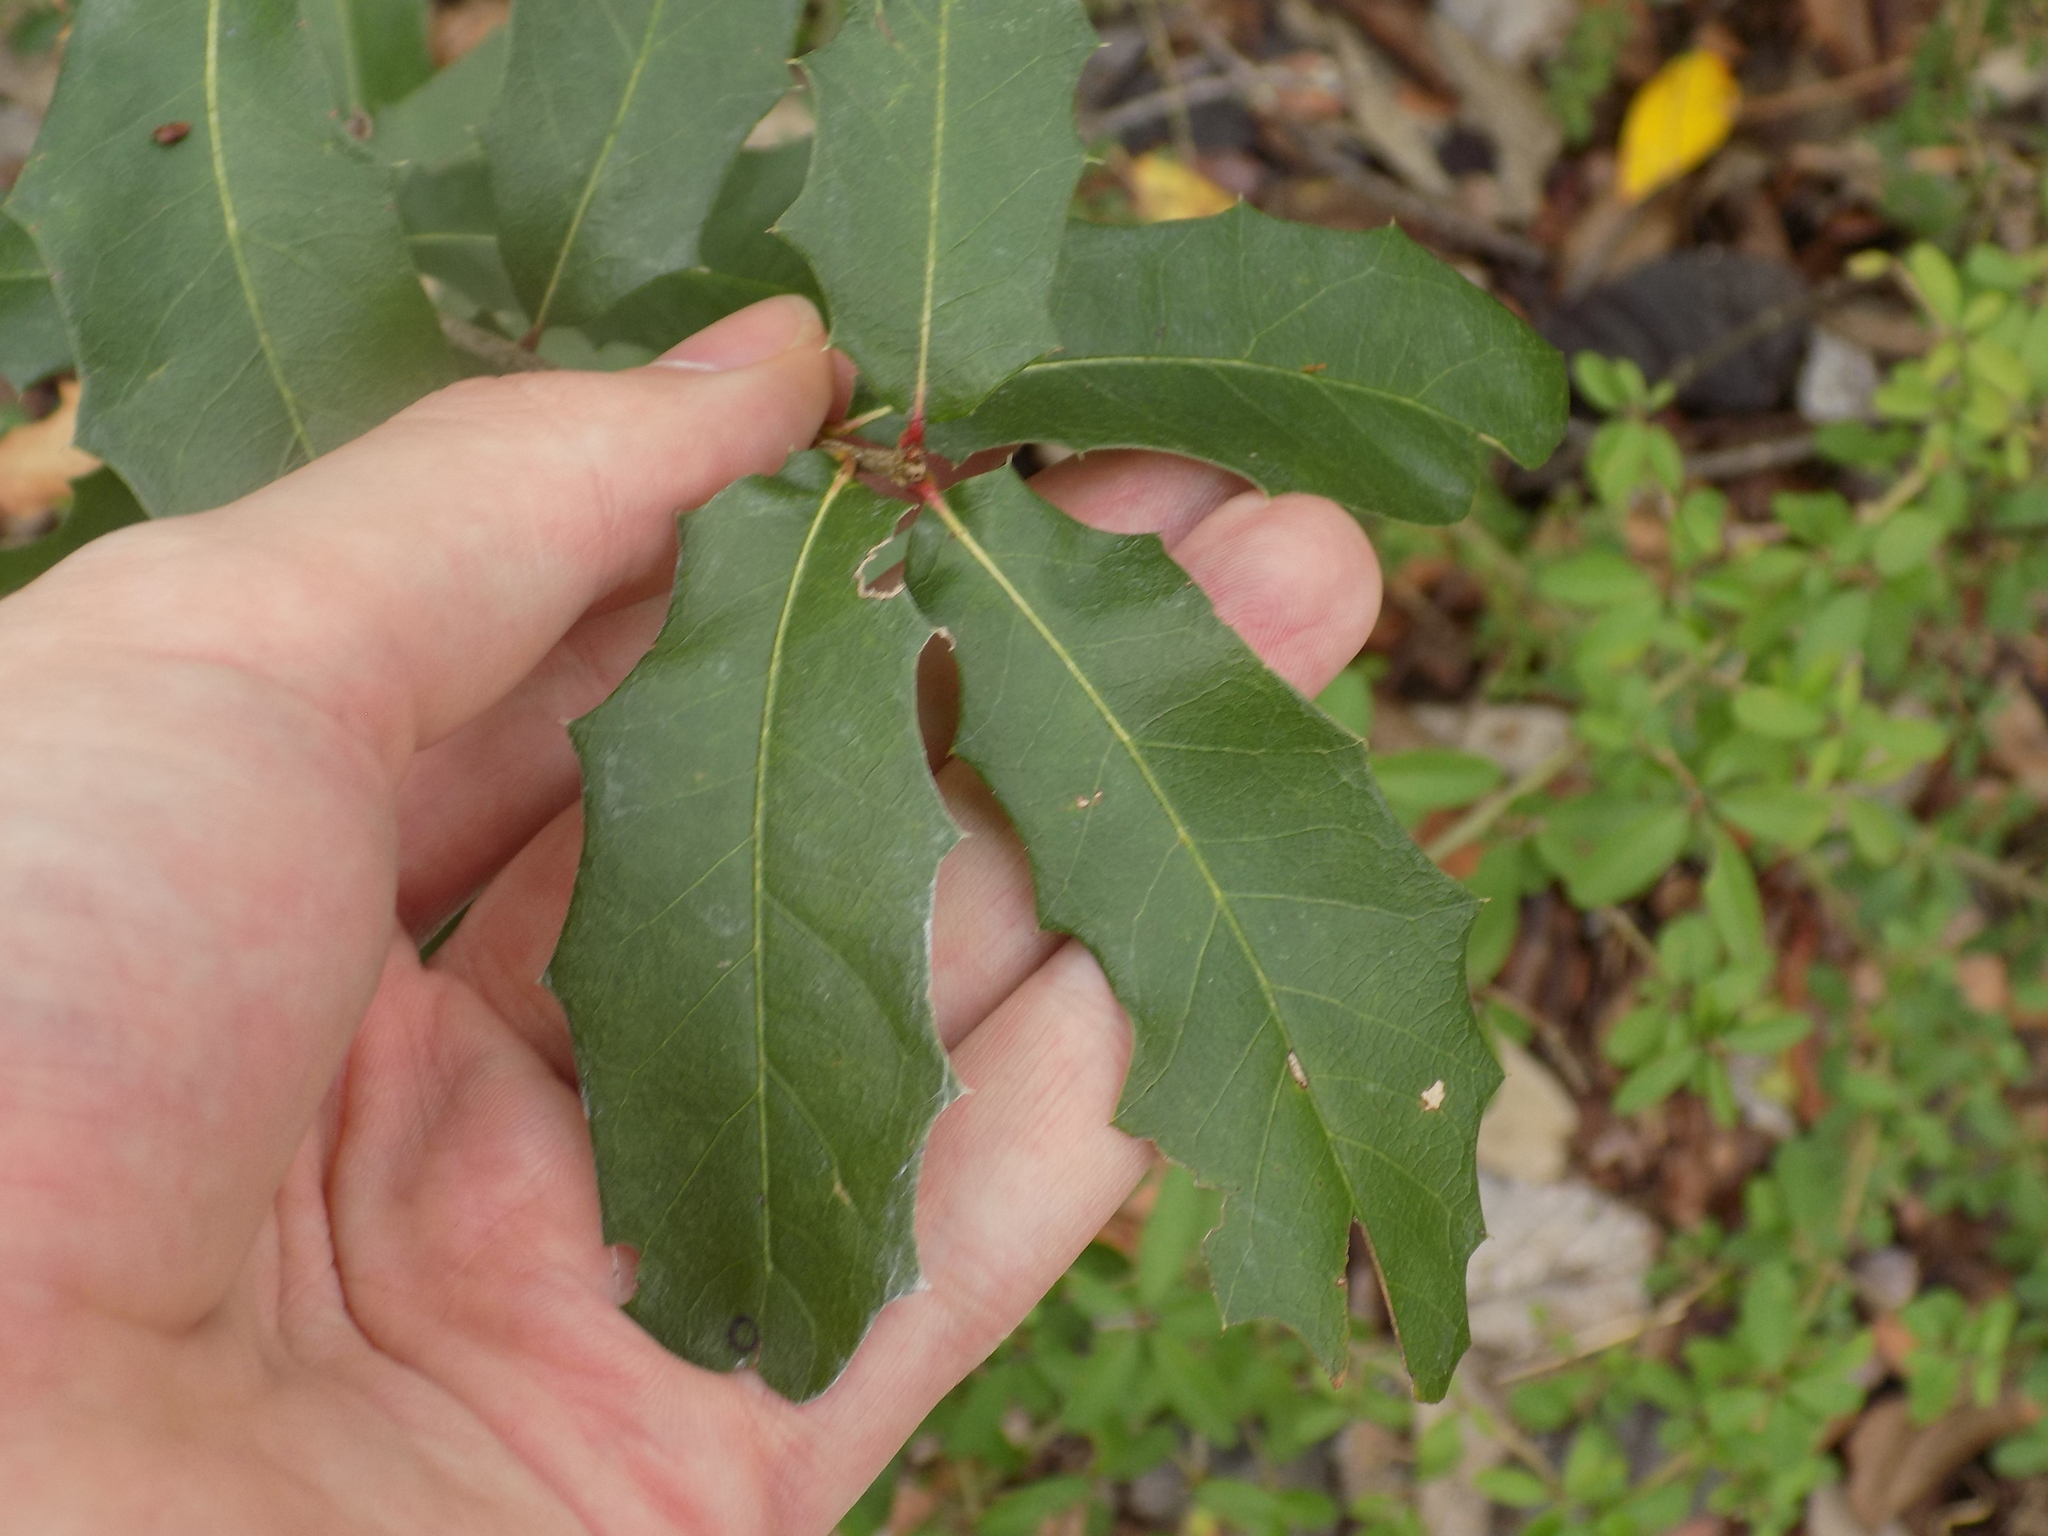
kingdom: Plantae
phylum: Tracheophyta
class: Magnoliopsida
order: Fagales
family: Fagaceae
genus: Quercus
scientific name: Quercus fusiformis
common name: Texas live oak
